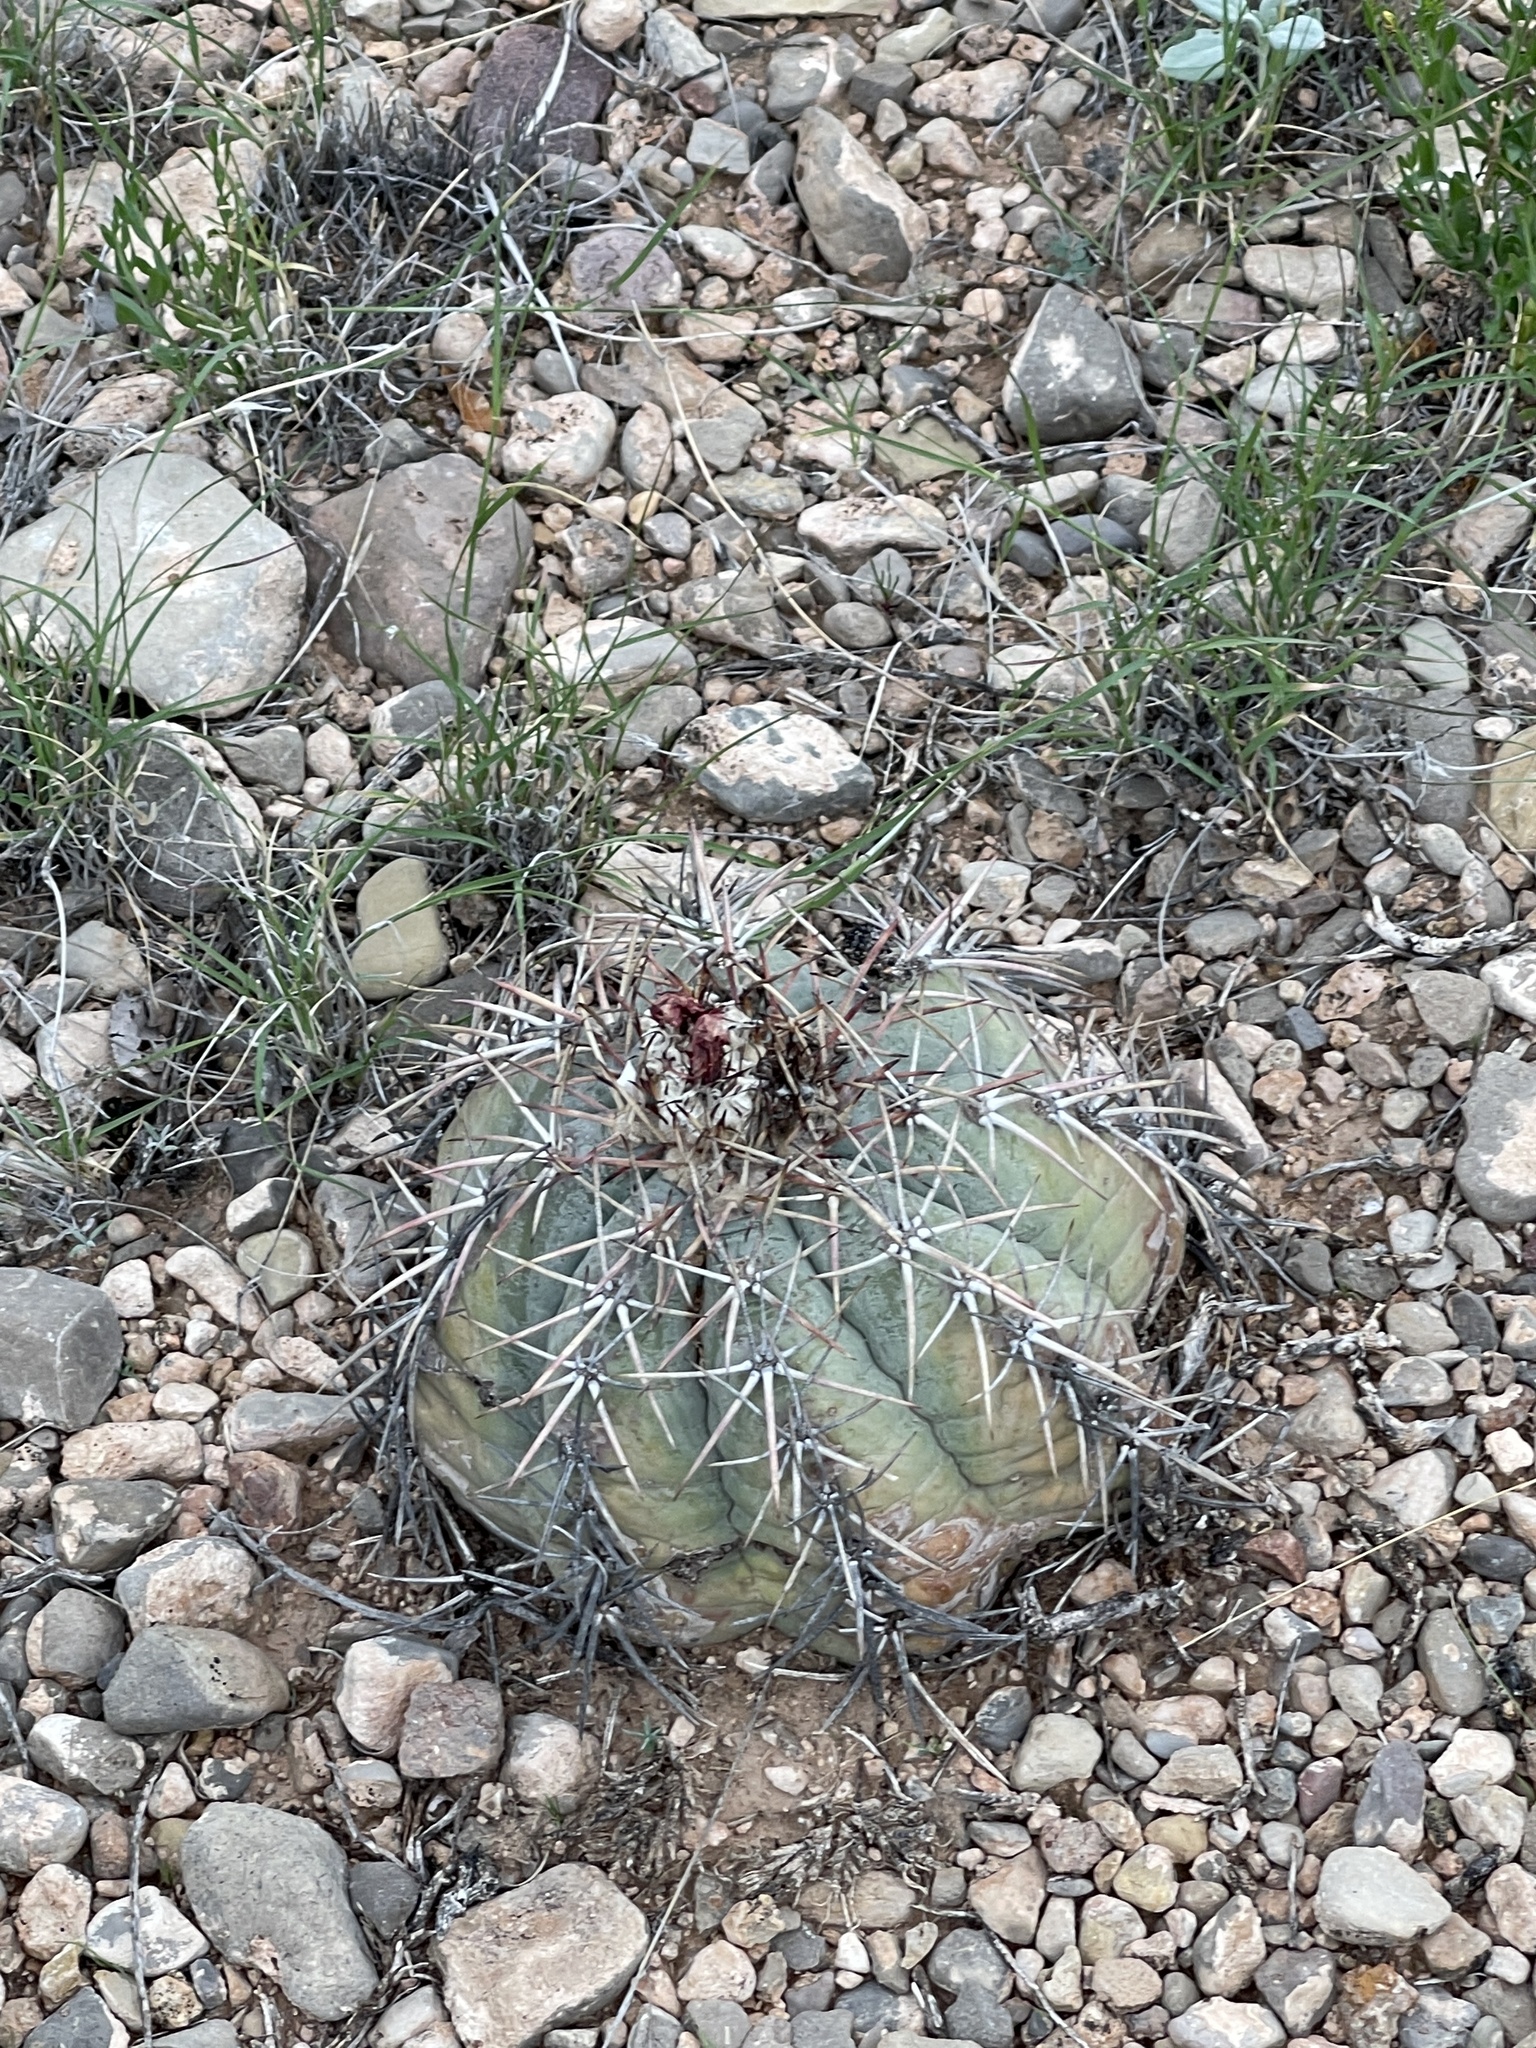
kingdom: Plantae
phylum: Tracheophyta
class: Magnoliopsida
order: Caryophyllales
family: Cactaceae
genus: Echinocactus
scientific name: Echinocactus horizonthalonius
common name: Devilshead
